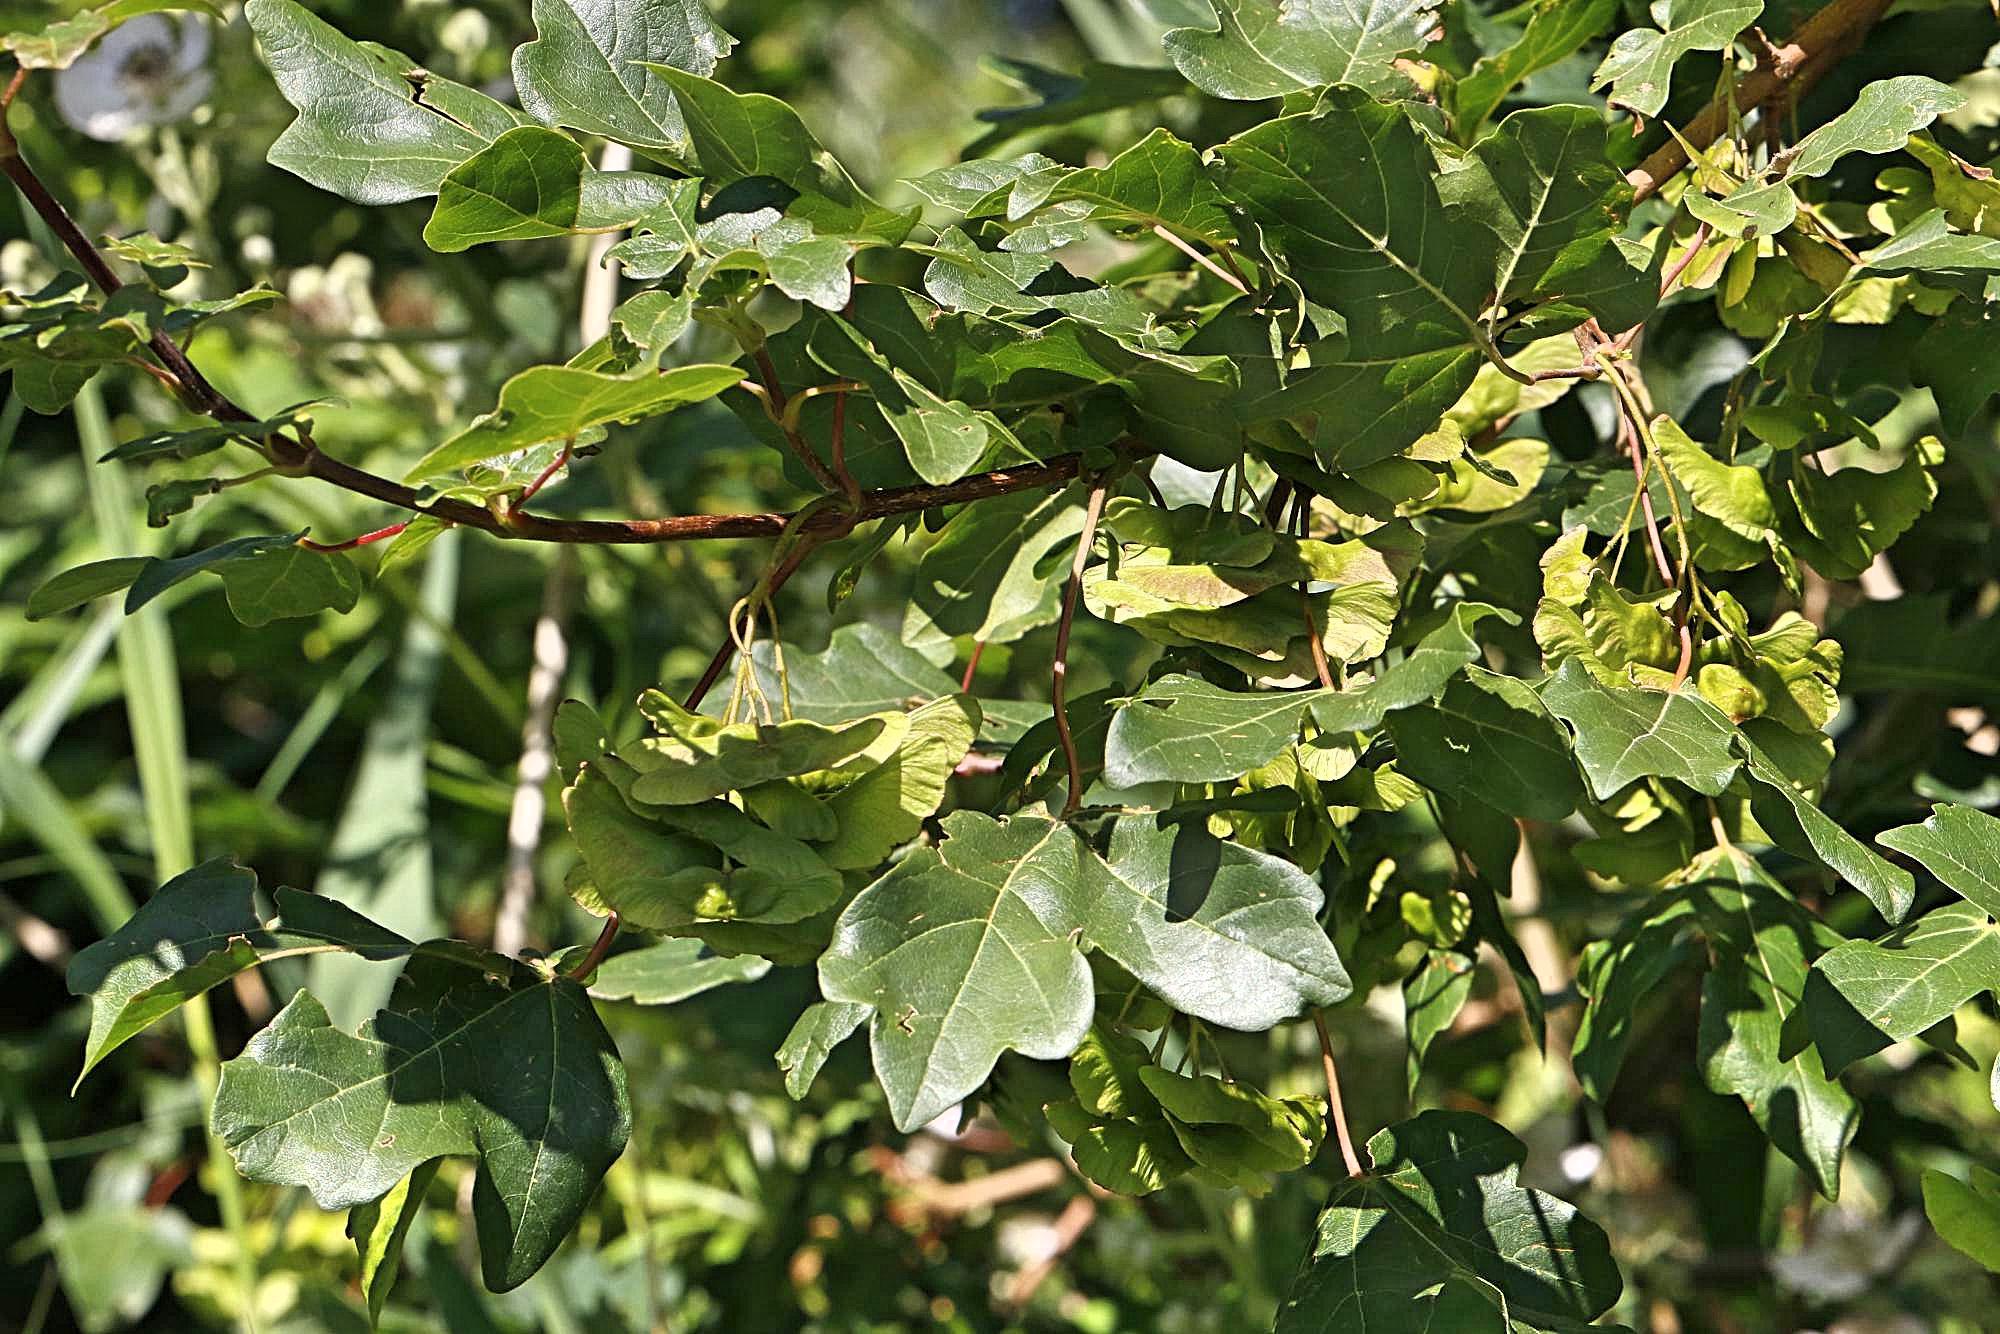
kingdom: Plantae
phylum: Tracheophyta
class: Magnoliopsida
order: Sapindales
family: Sapindaceae
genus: Acer
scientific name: Acer campestre
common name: Field maple
